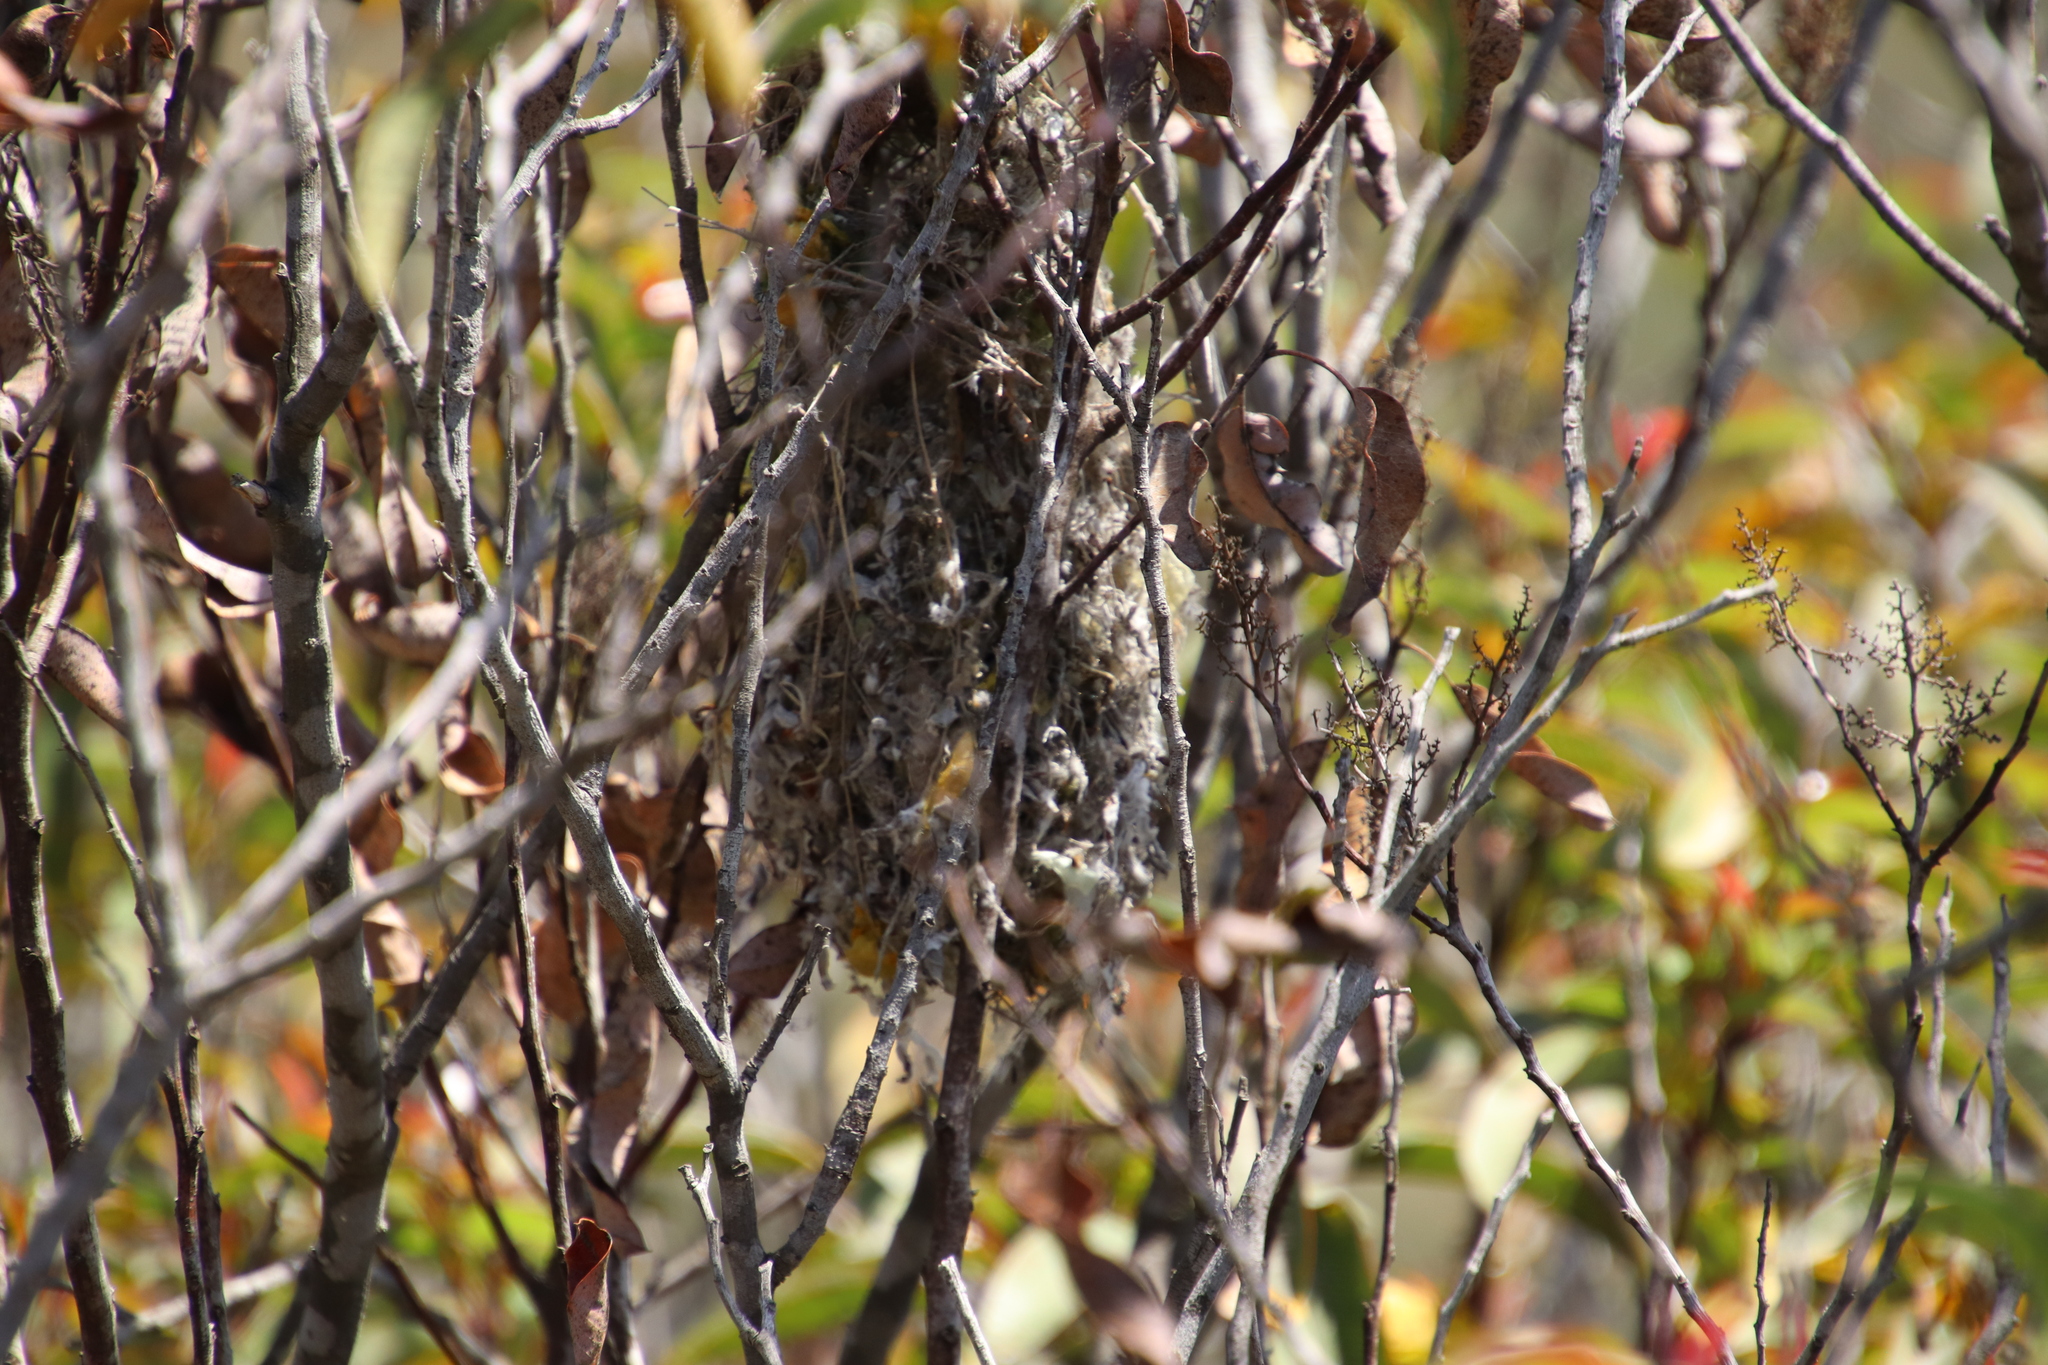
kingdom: Animalia
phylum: Chordata
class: Aves
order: Passeriformes
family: Aegithalidae
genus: Psaltriparus
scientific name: Psaltriparus minimus
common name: American bushtit
